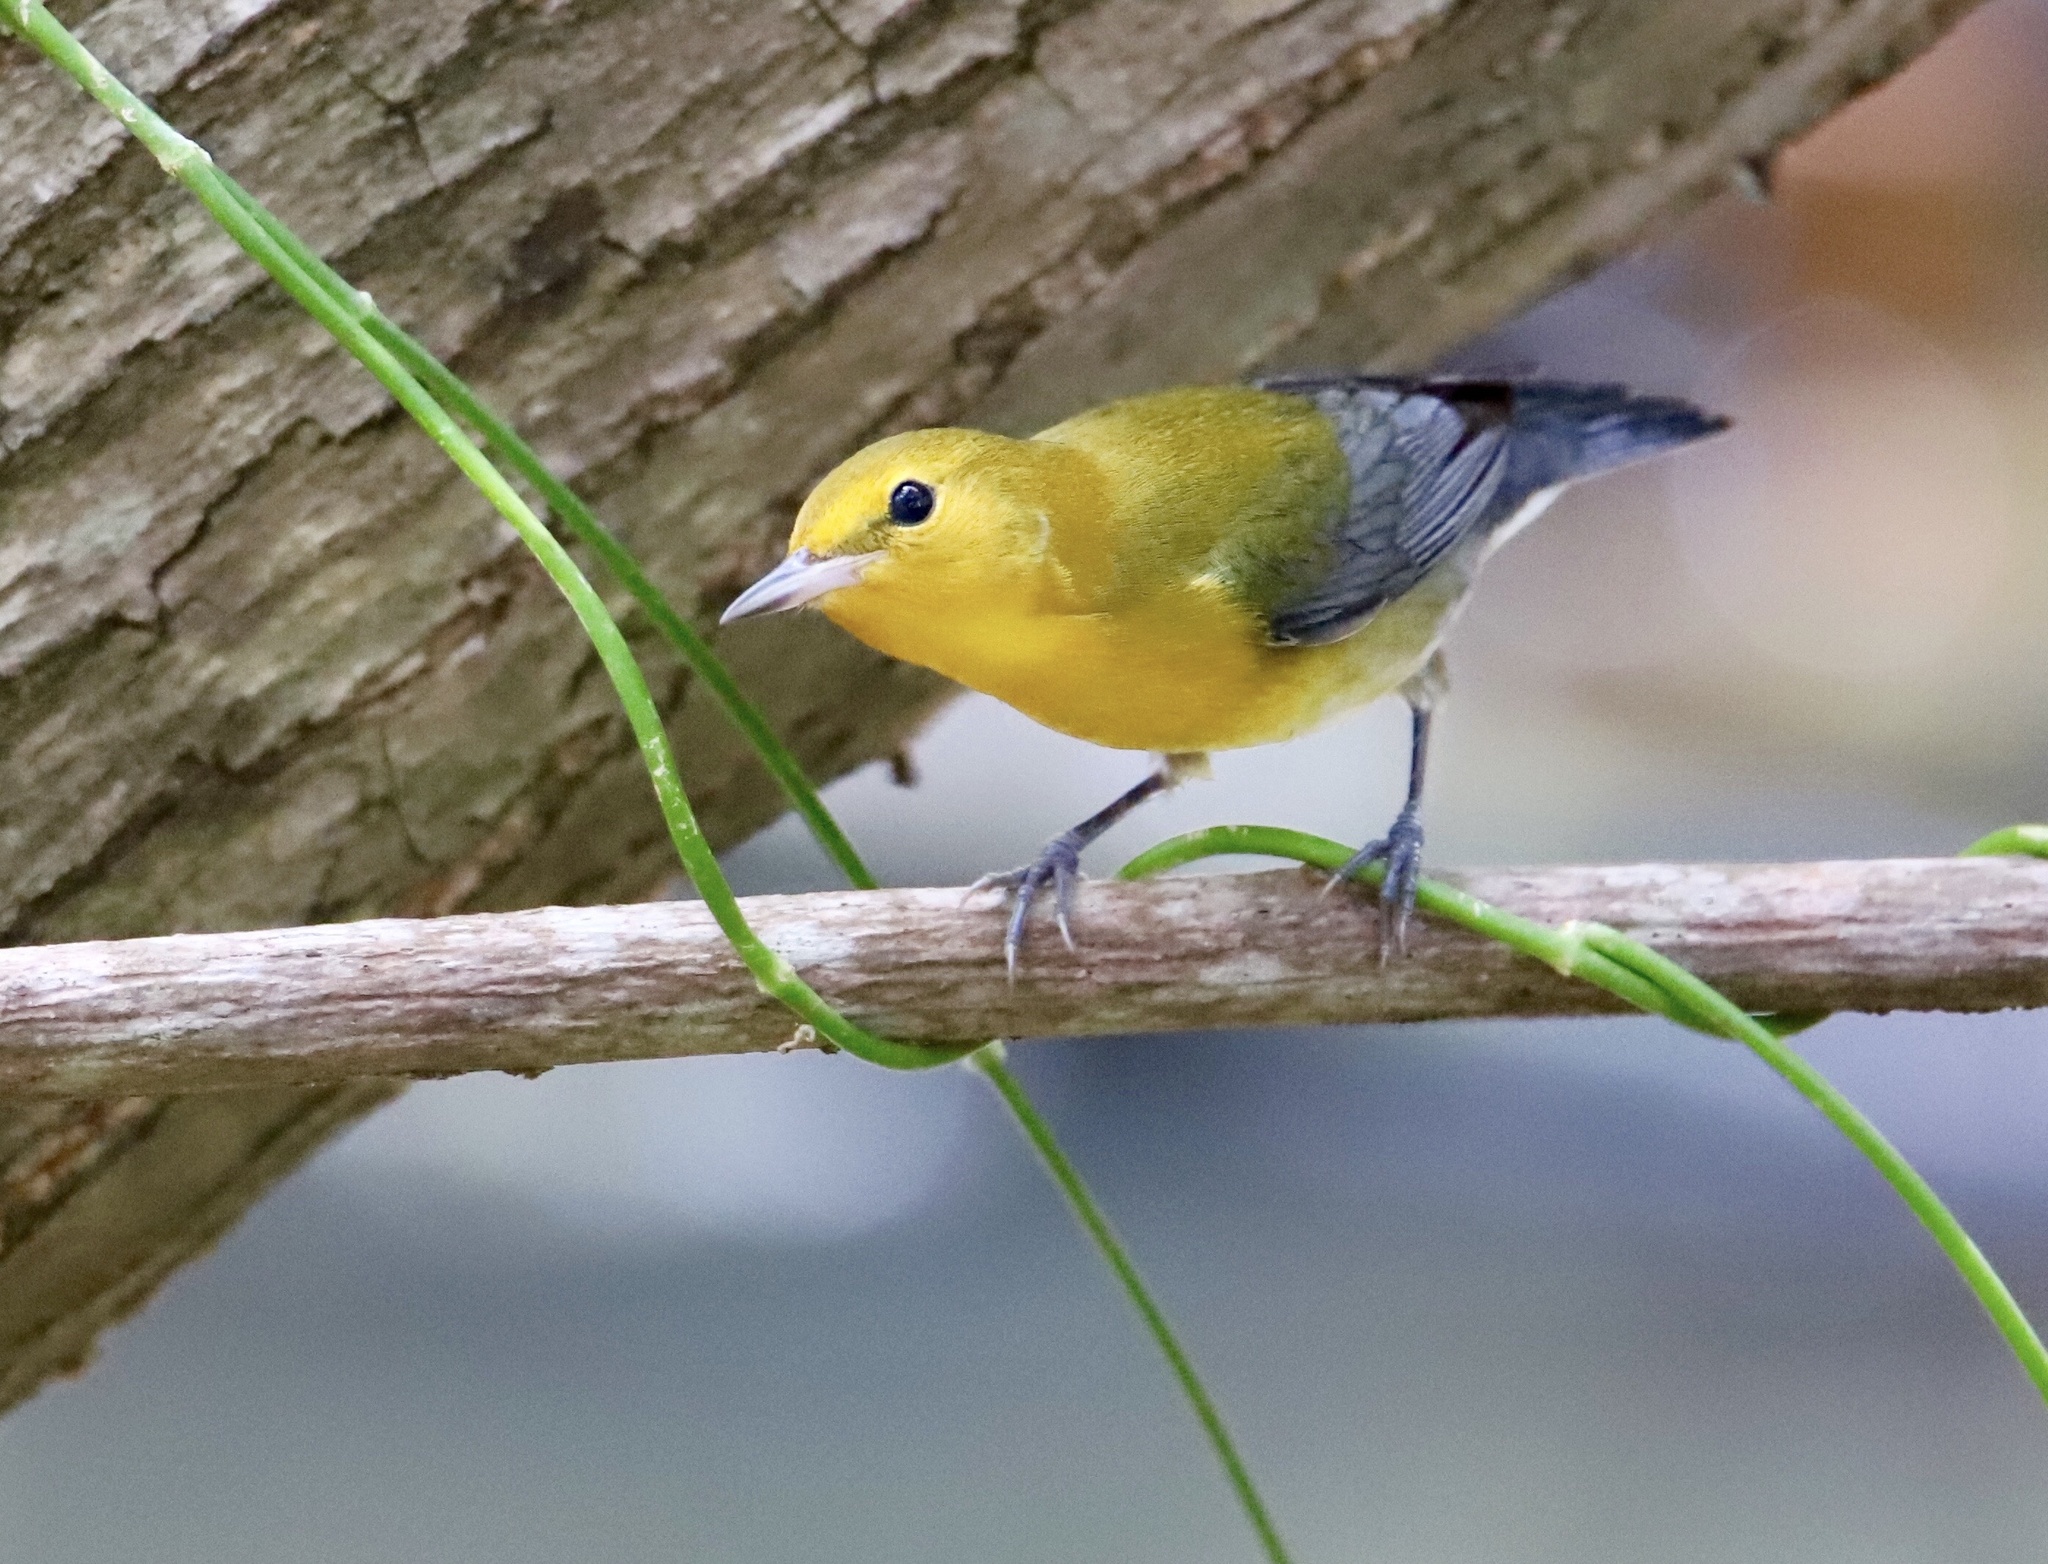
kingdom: Animalia
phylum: Chordata
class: Aves
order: Passeriformes
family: Parulidae
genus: Protonotaria
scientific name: Protonotaria citrea
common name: Prothonotary warbler
